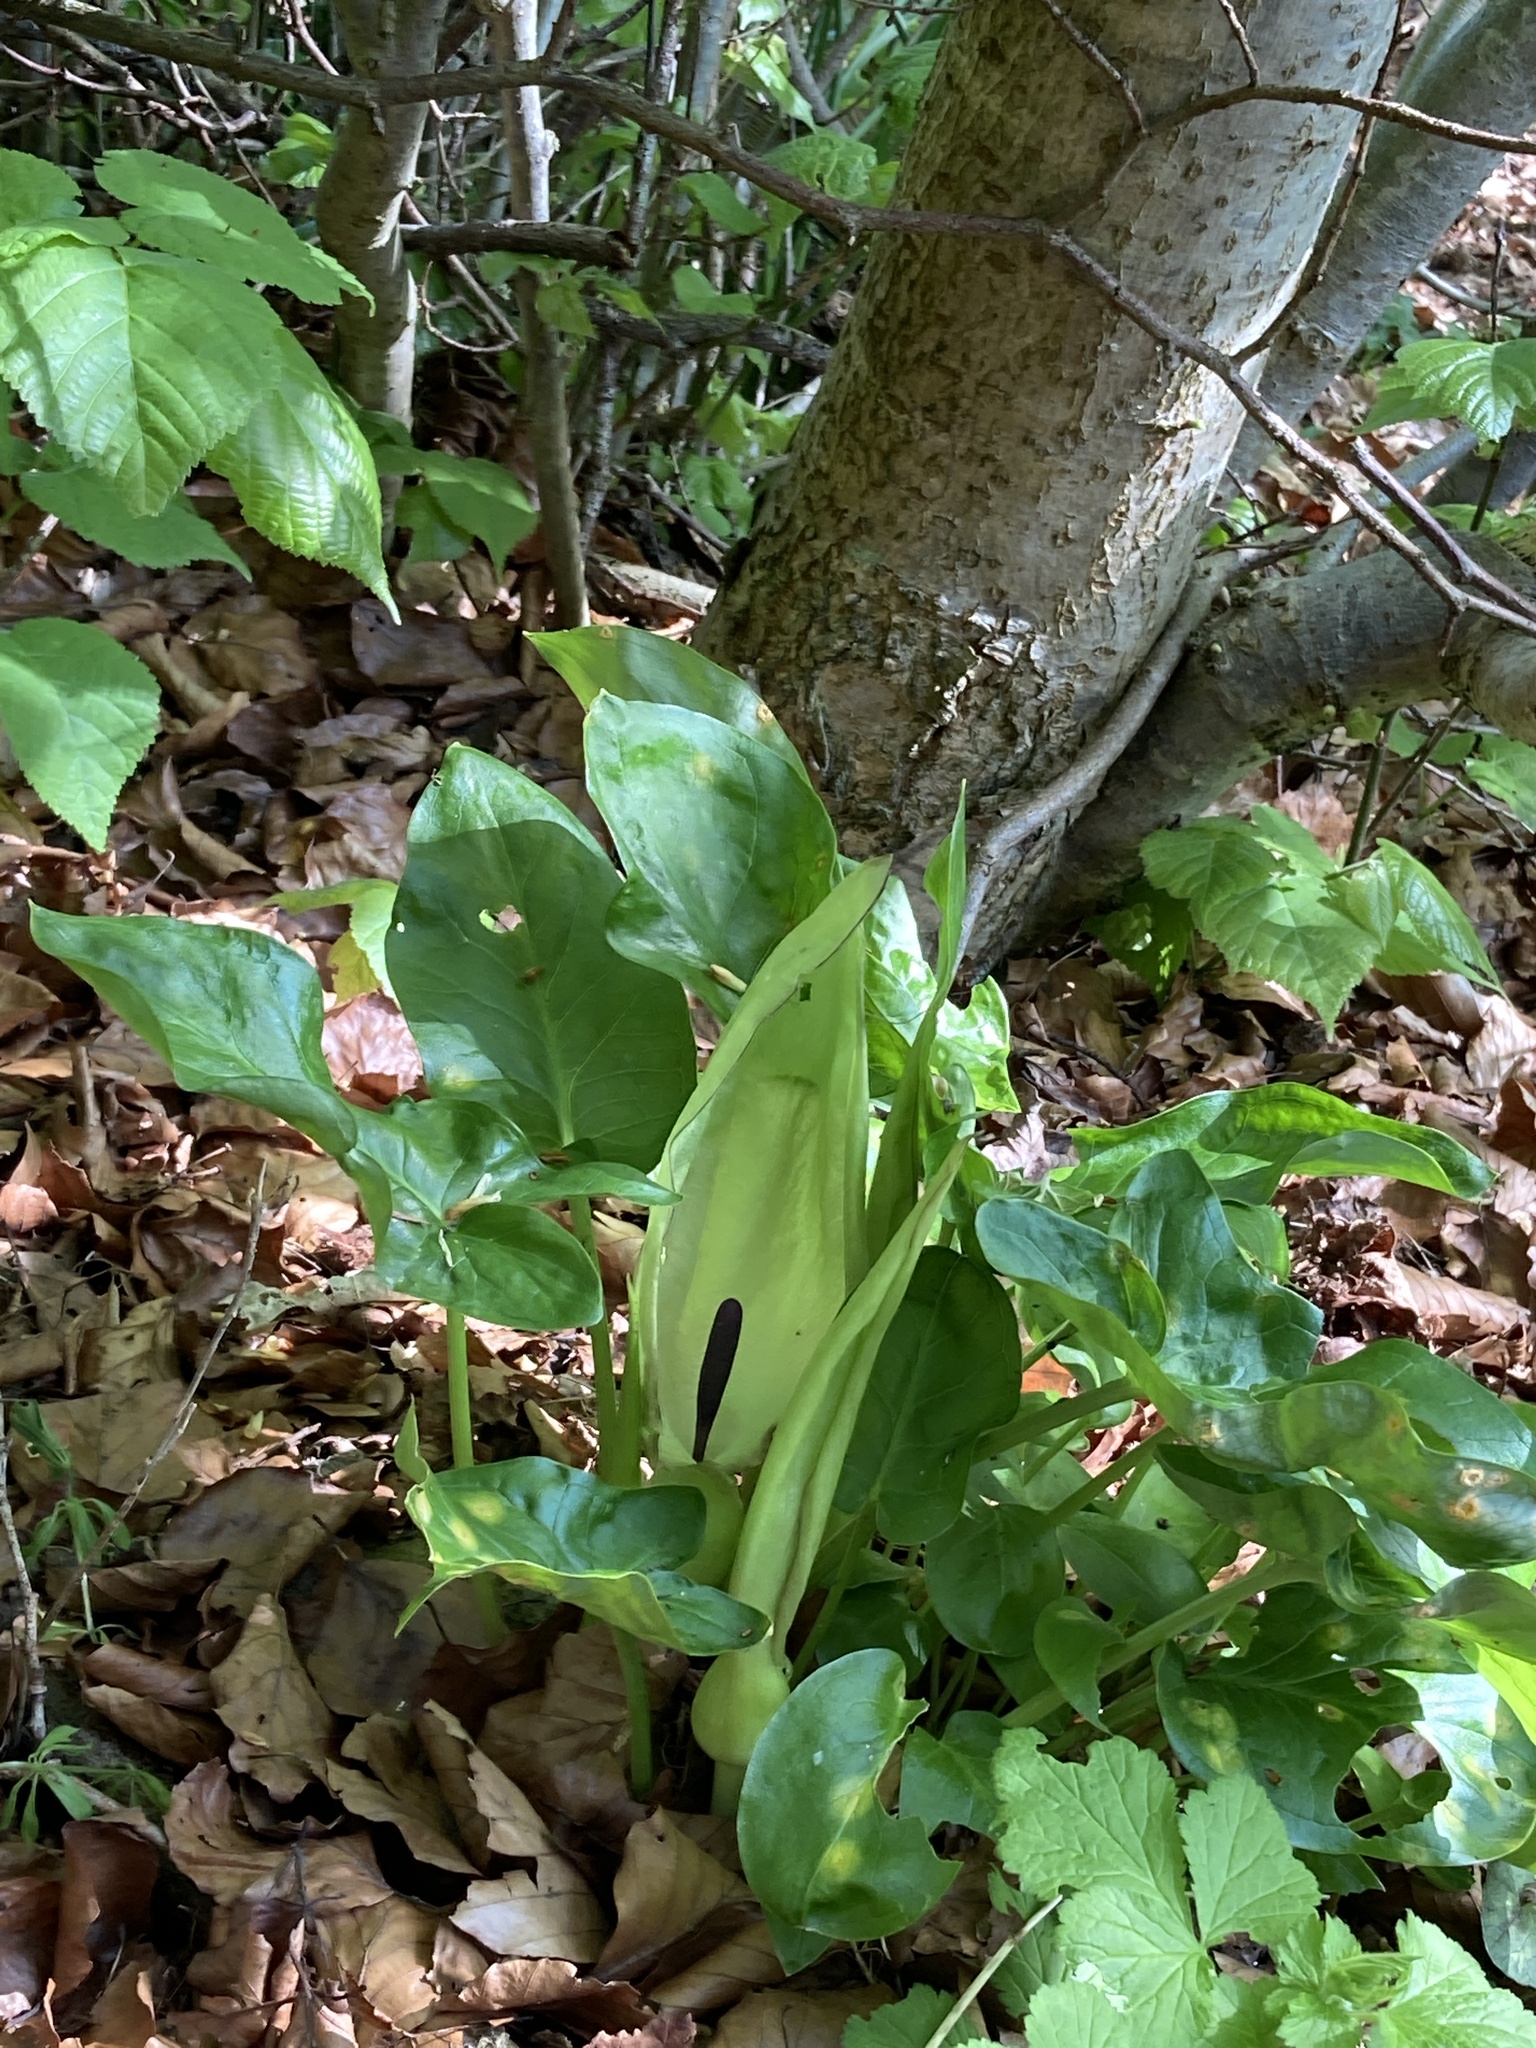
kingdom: Plantae
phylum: Tracheophyta
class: Liliopsida
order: Alismatales
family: Araceae
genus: Arum
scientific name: Arum maculatum
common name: Lords-and-ladies
